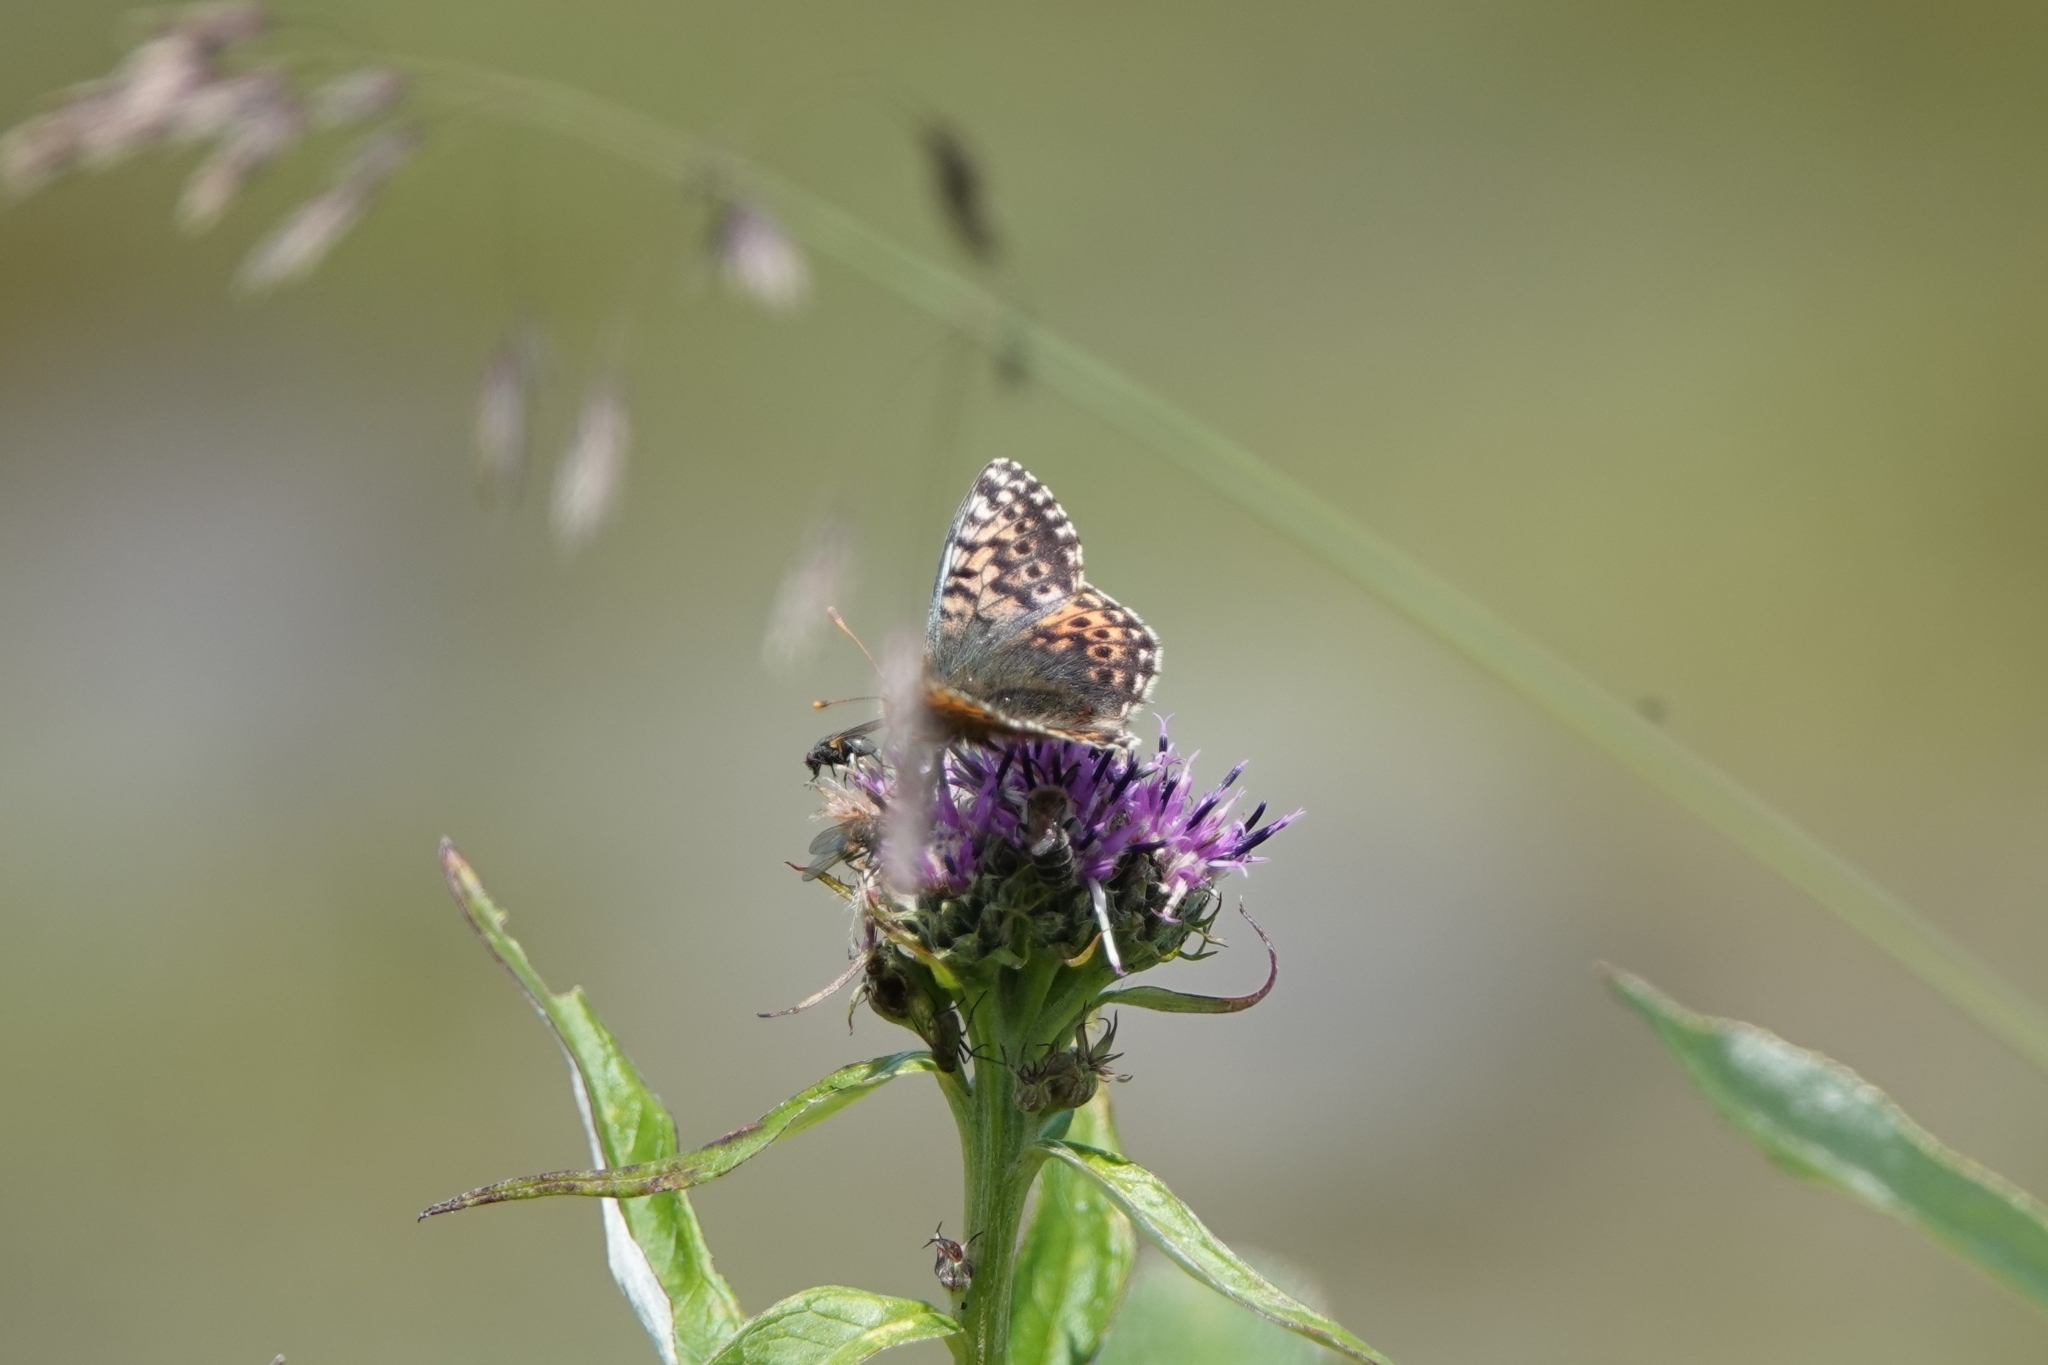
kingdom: Animalia
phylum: Arthropoda
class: Insecta
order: Lepidoptera
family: Nymphalidae
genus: Boloria
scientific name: Boloria alaskensis
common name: Alaskan fritillary
